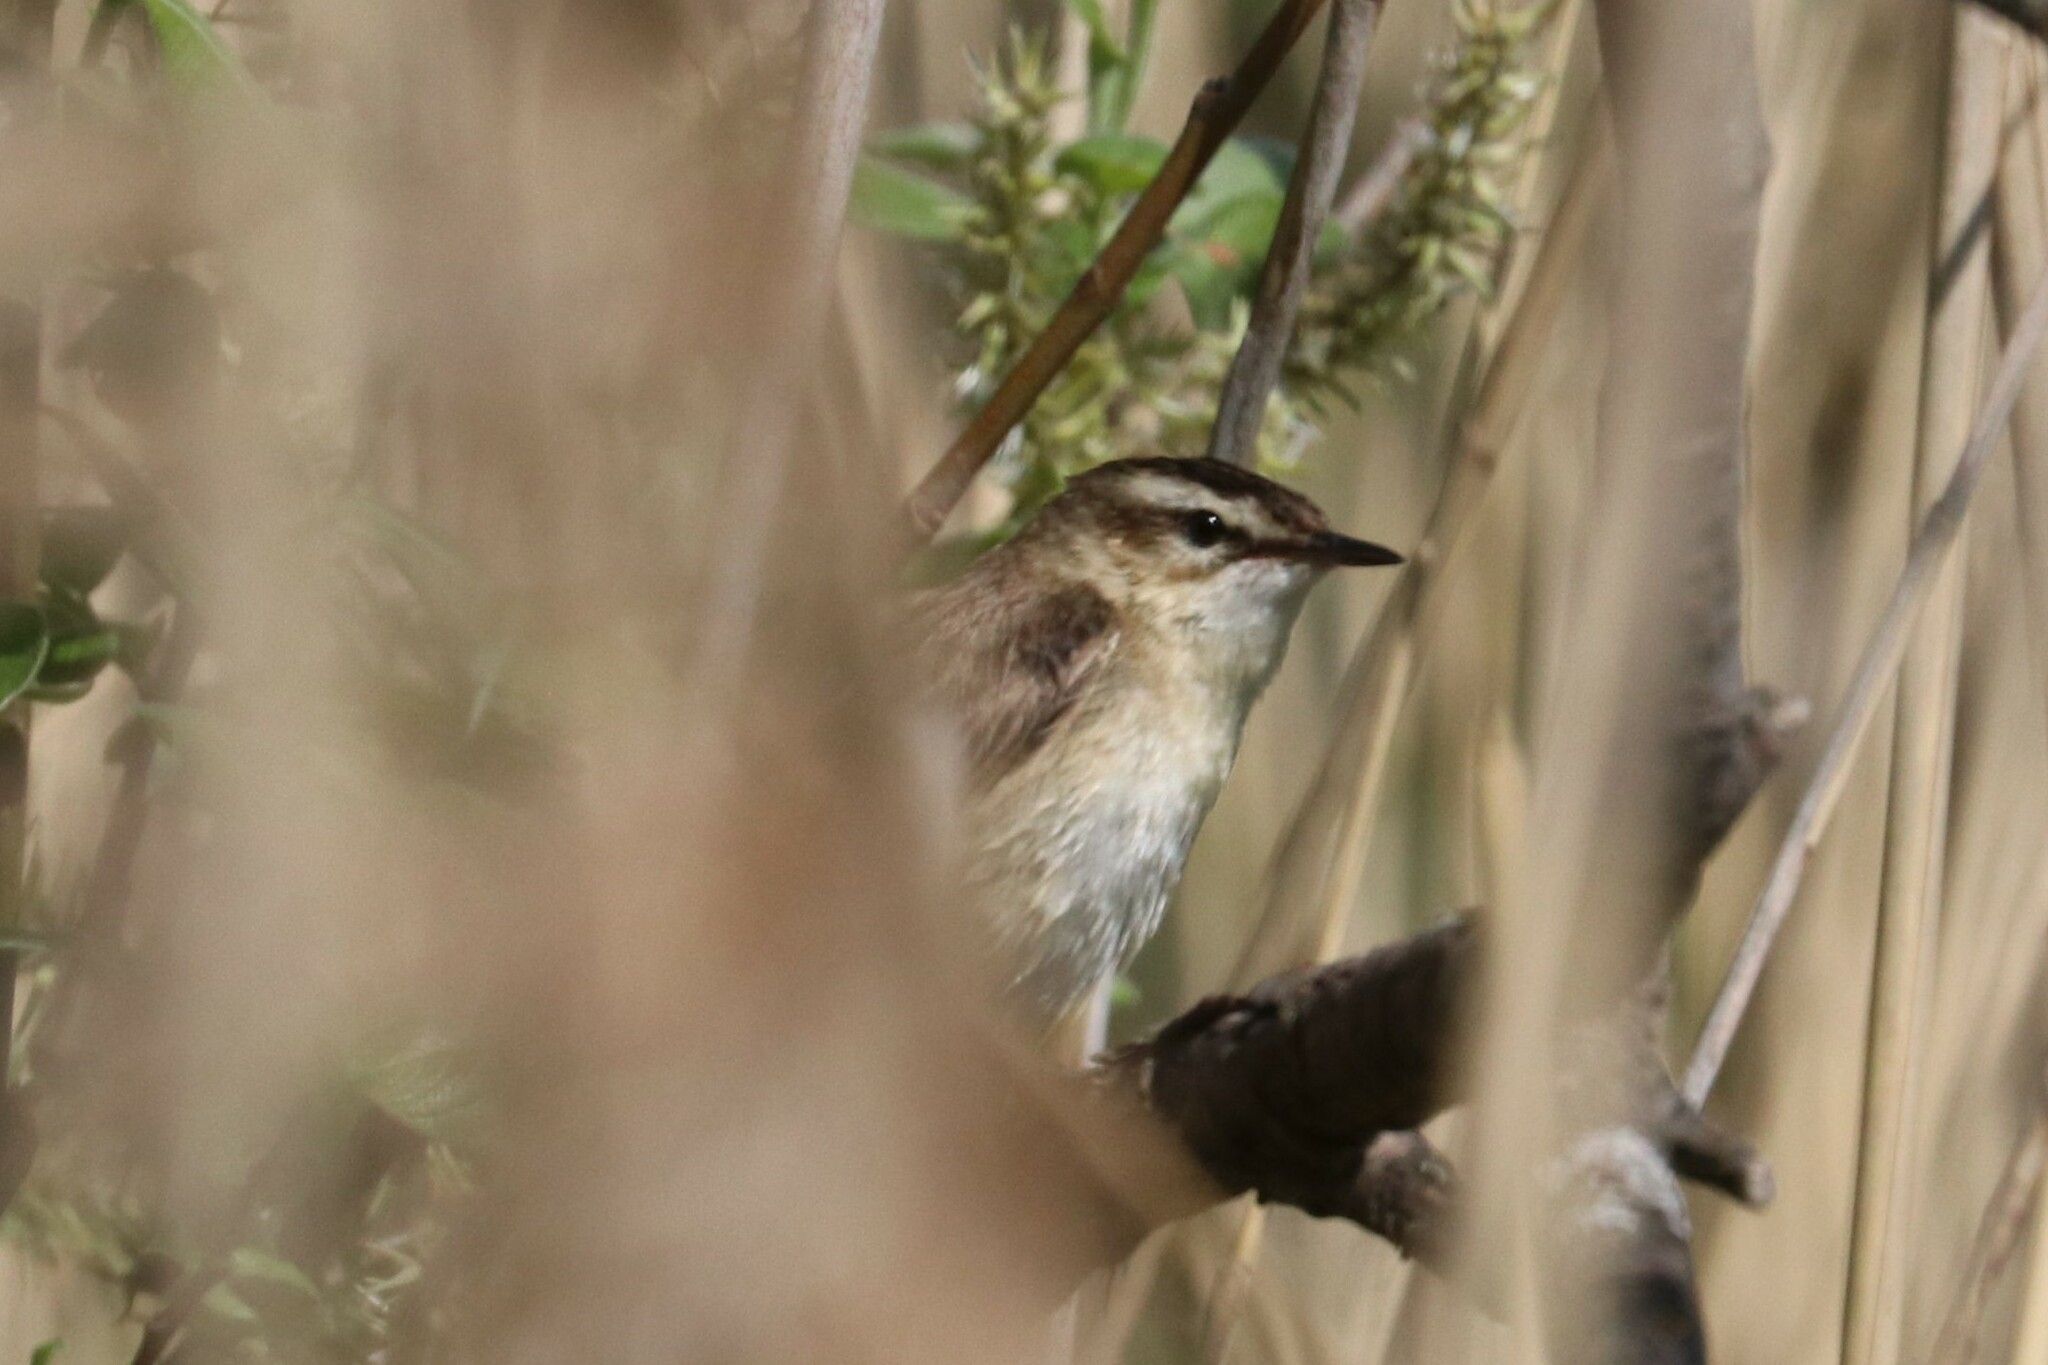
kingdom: Animalia
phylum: Chordata
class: Aves
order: Passeriformes
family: Acrocephalidae
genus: Acrocephalus
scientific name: Acrocephalus schoenobaenus
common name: Sedge warbler
